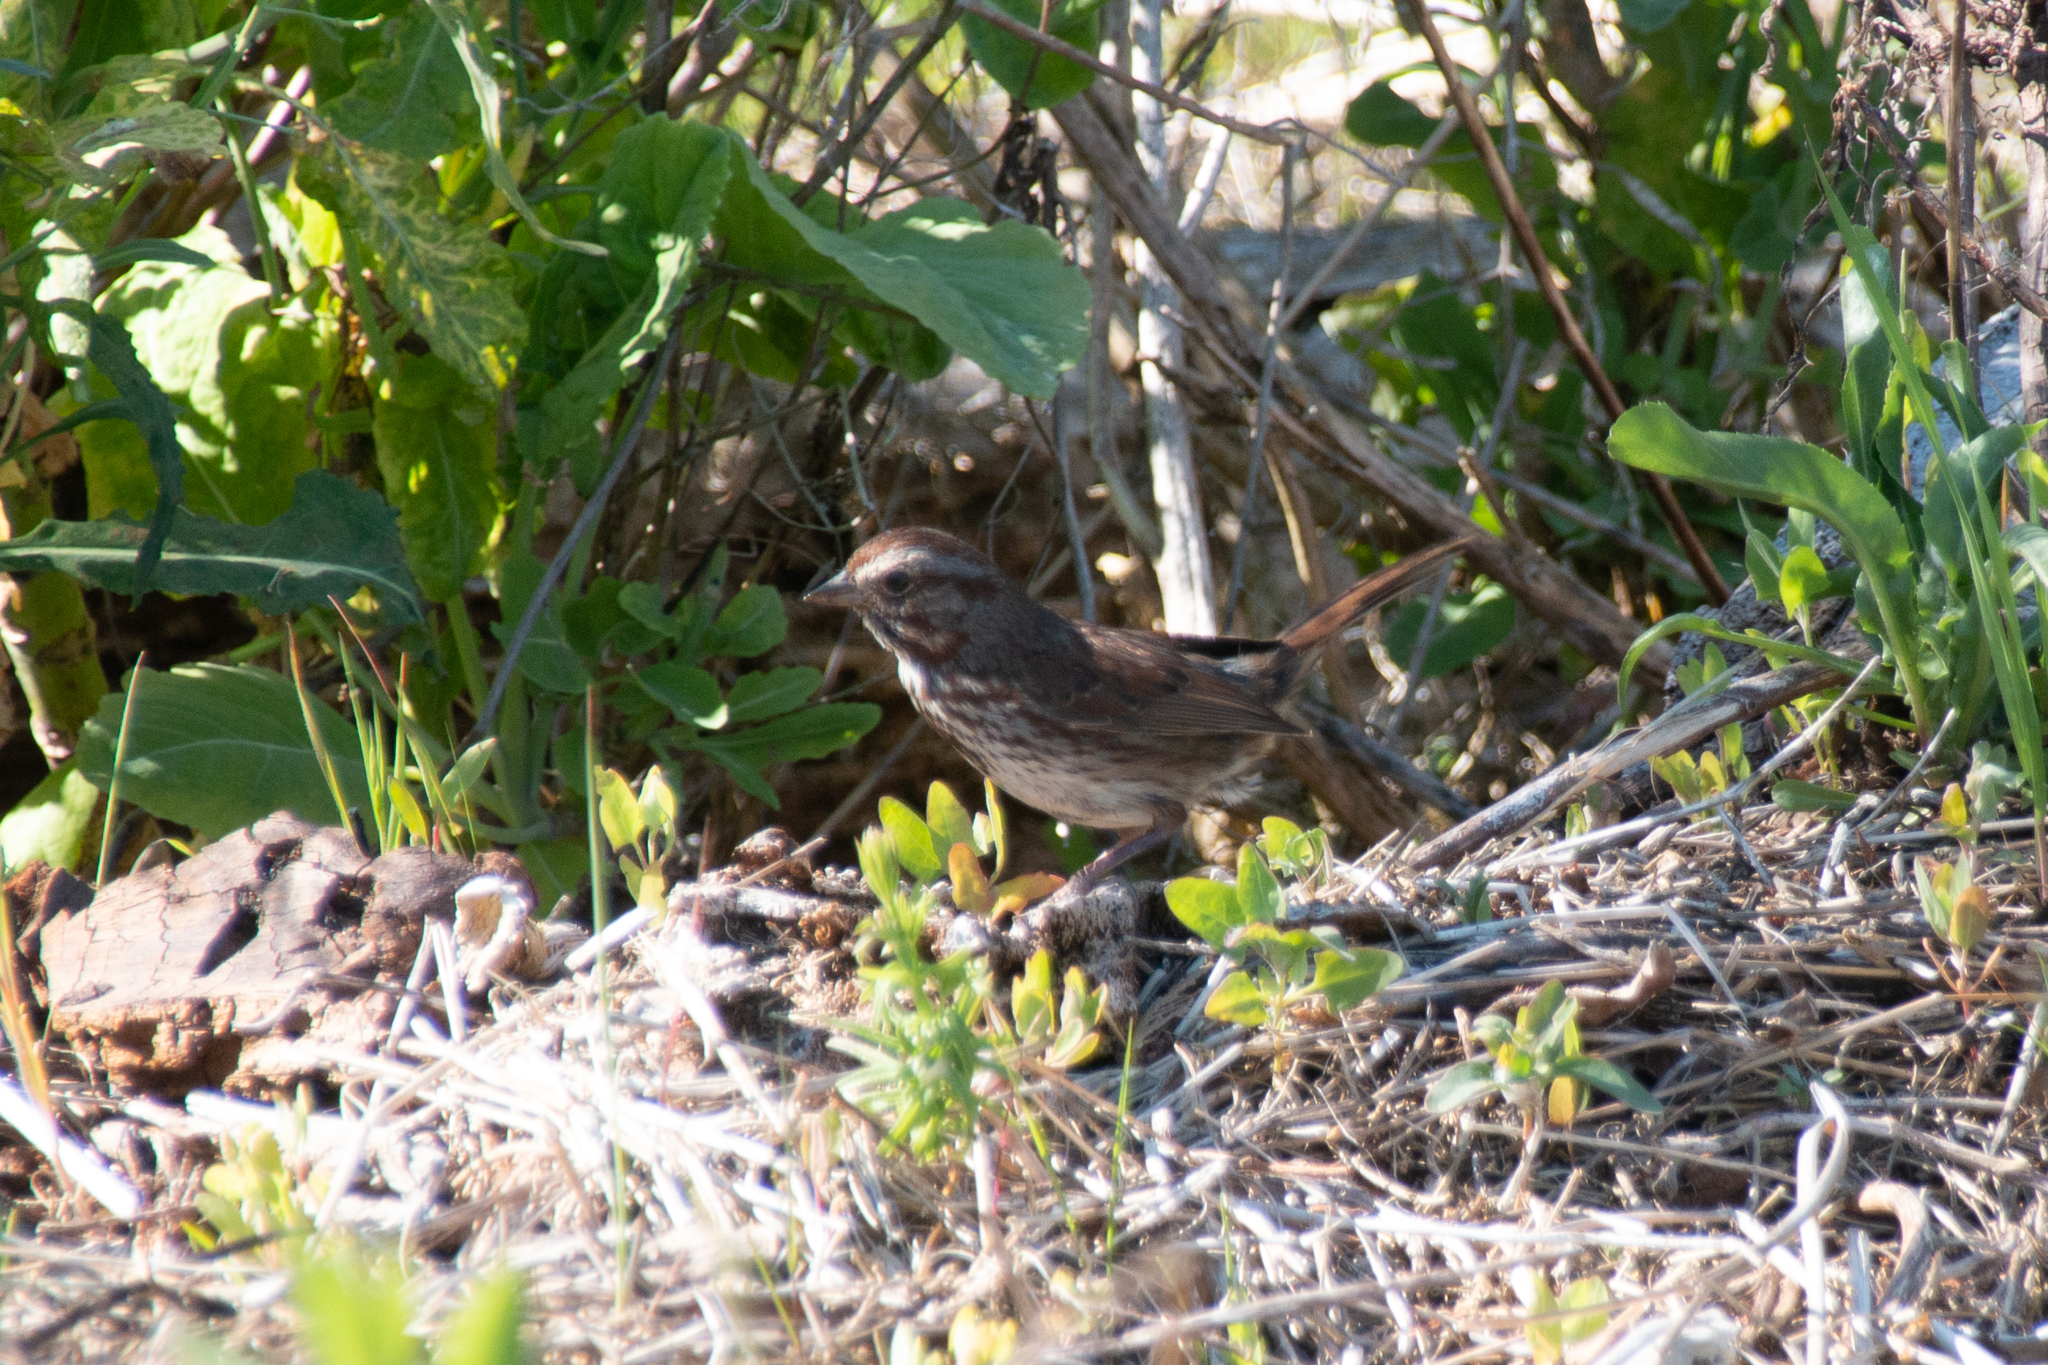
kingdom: Animalia
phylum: Chordata
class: Aves
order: Passeriformes
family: Passerellidae
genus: Melospiza
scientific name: Melospiza melodia
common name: Song sparrow
